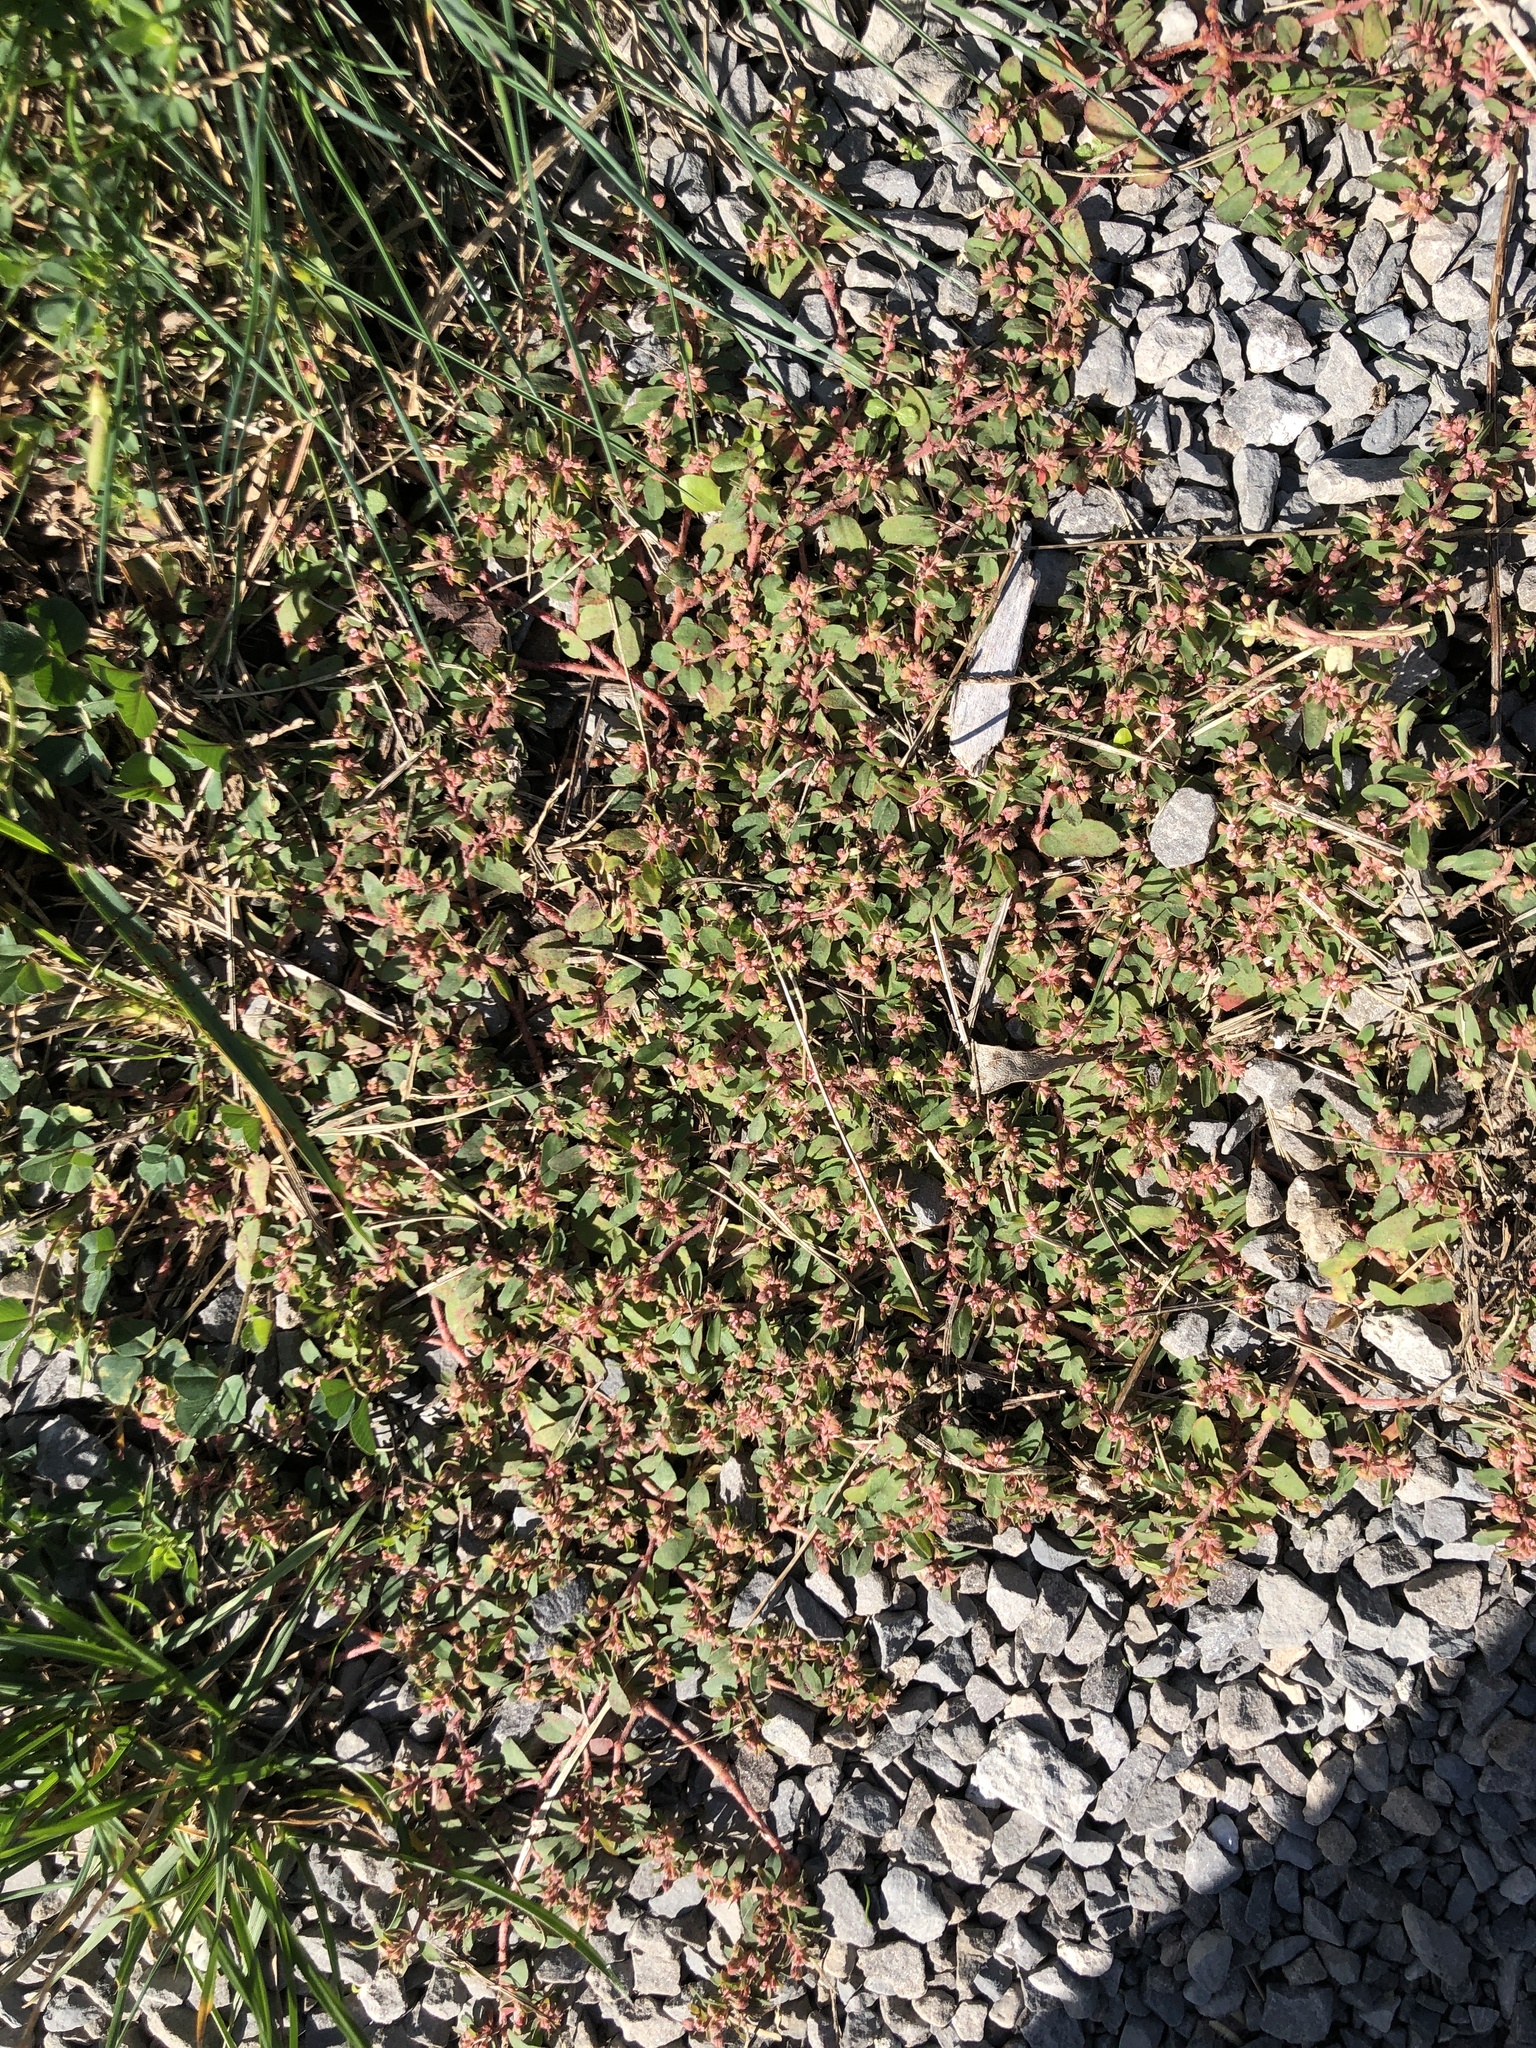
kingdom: Plantae
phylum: Tracheophyta
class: Magnoliopsida
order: Malpighiales
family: Euphorbiaceae
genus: Euphorbia
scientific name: Euphorbia maculata
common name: Spotted spurge
